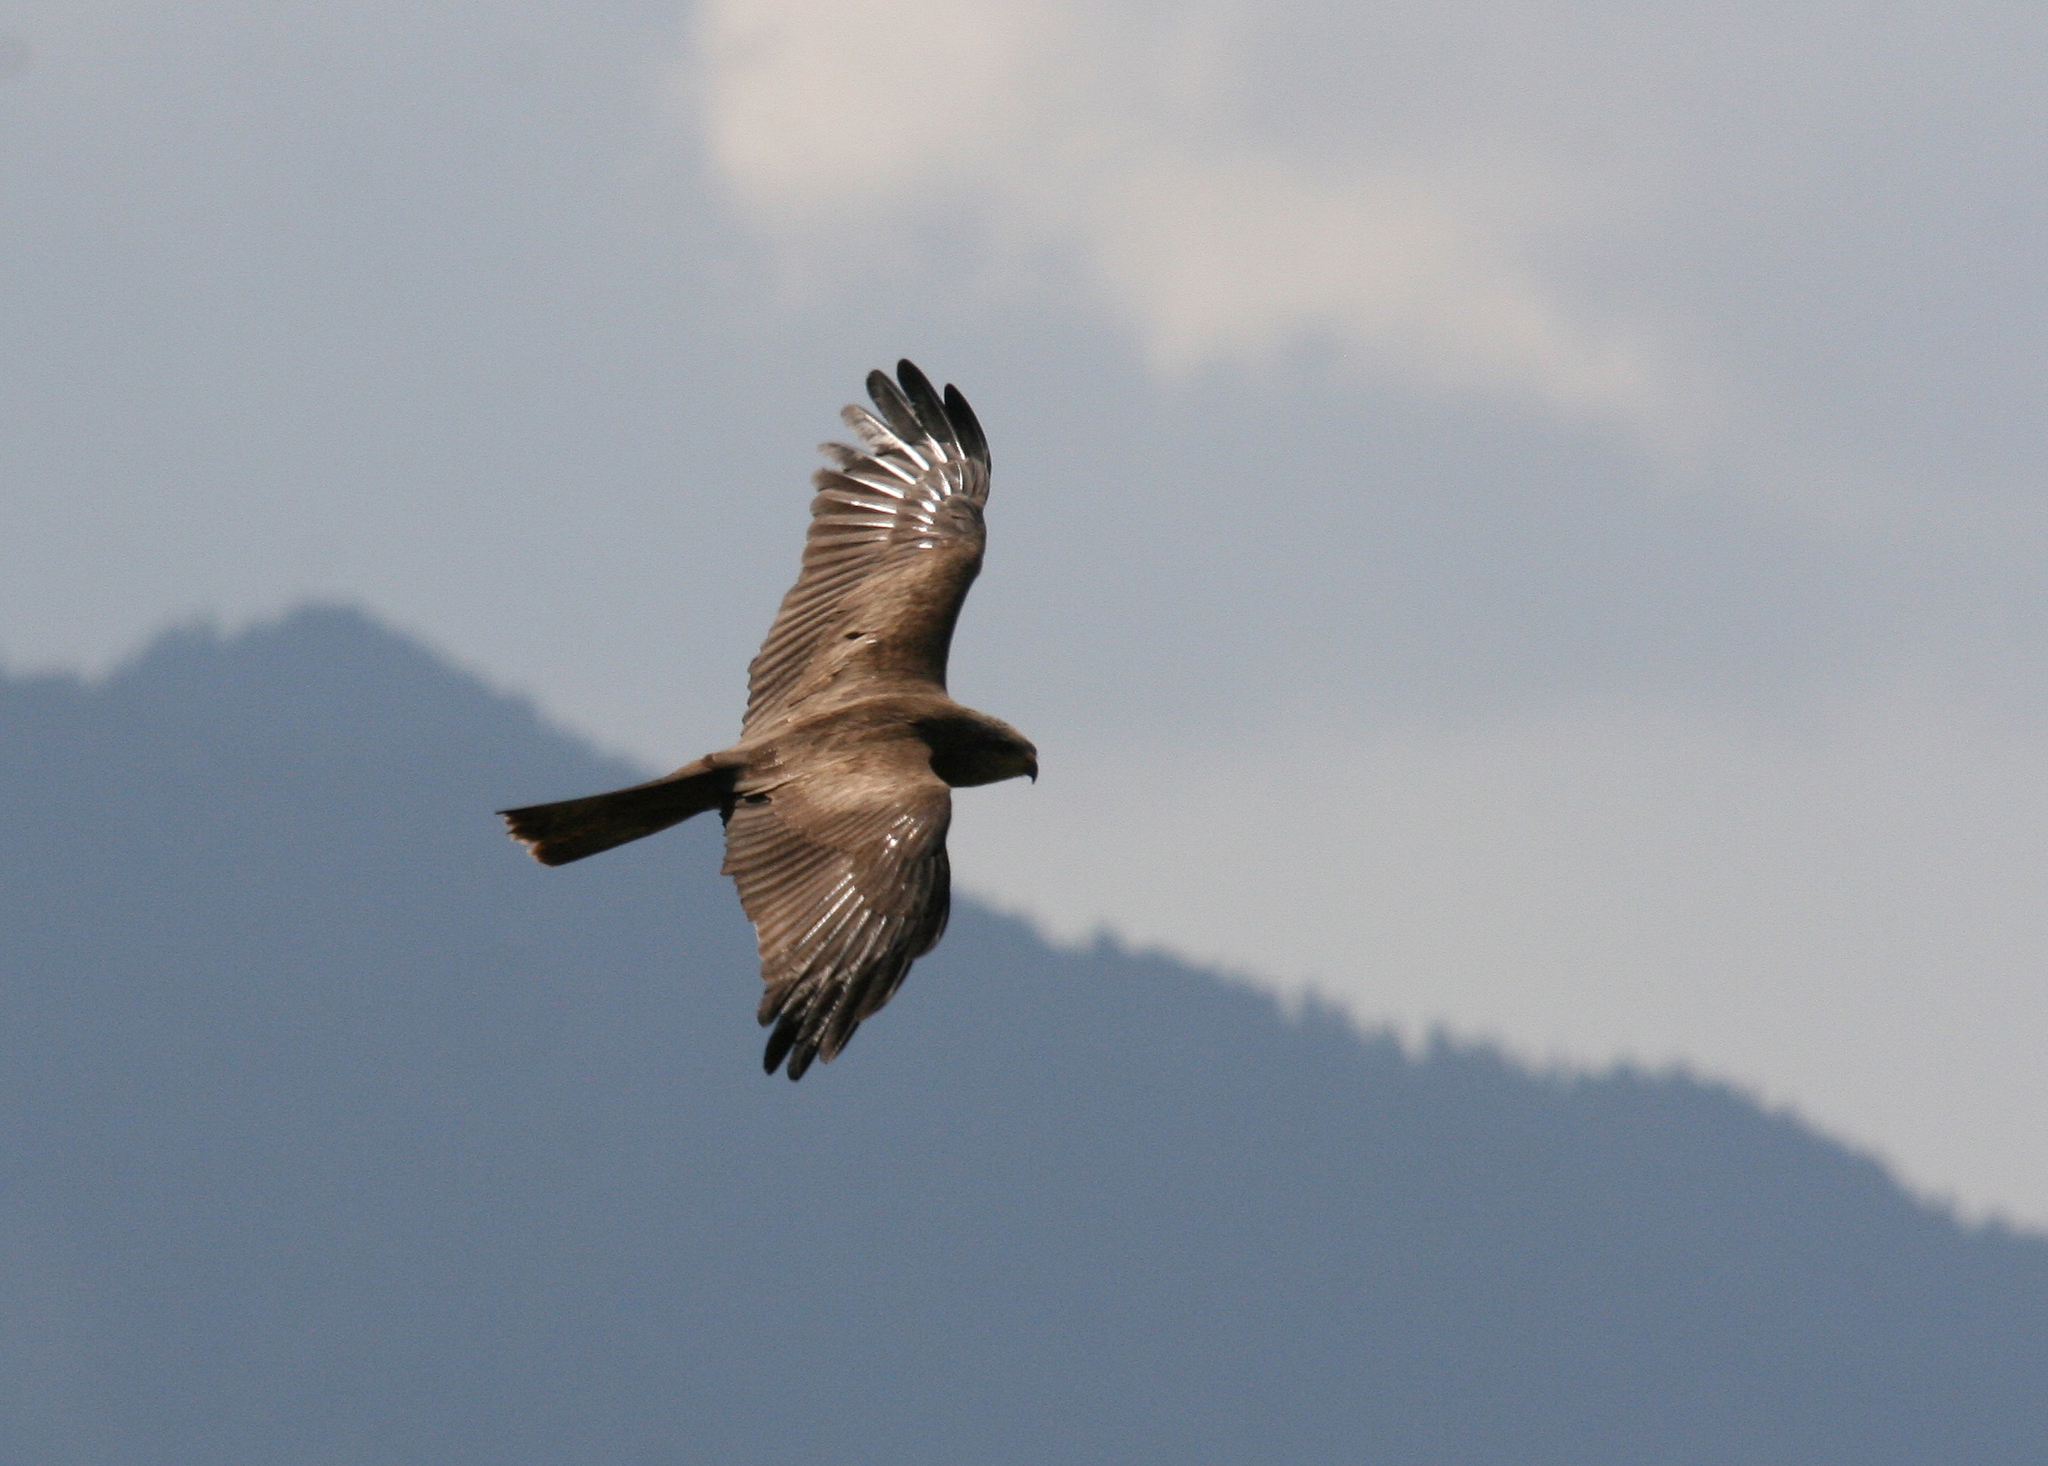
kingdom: Animalia
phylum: Chordata
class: Aves
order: Accipitriformes
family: Accipitridae
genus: Milvus
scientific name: Milvus migrans
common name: Black kite
